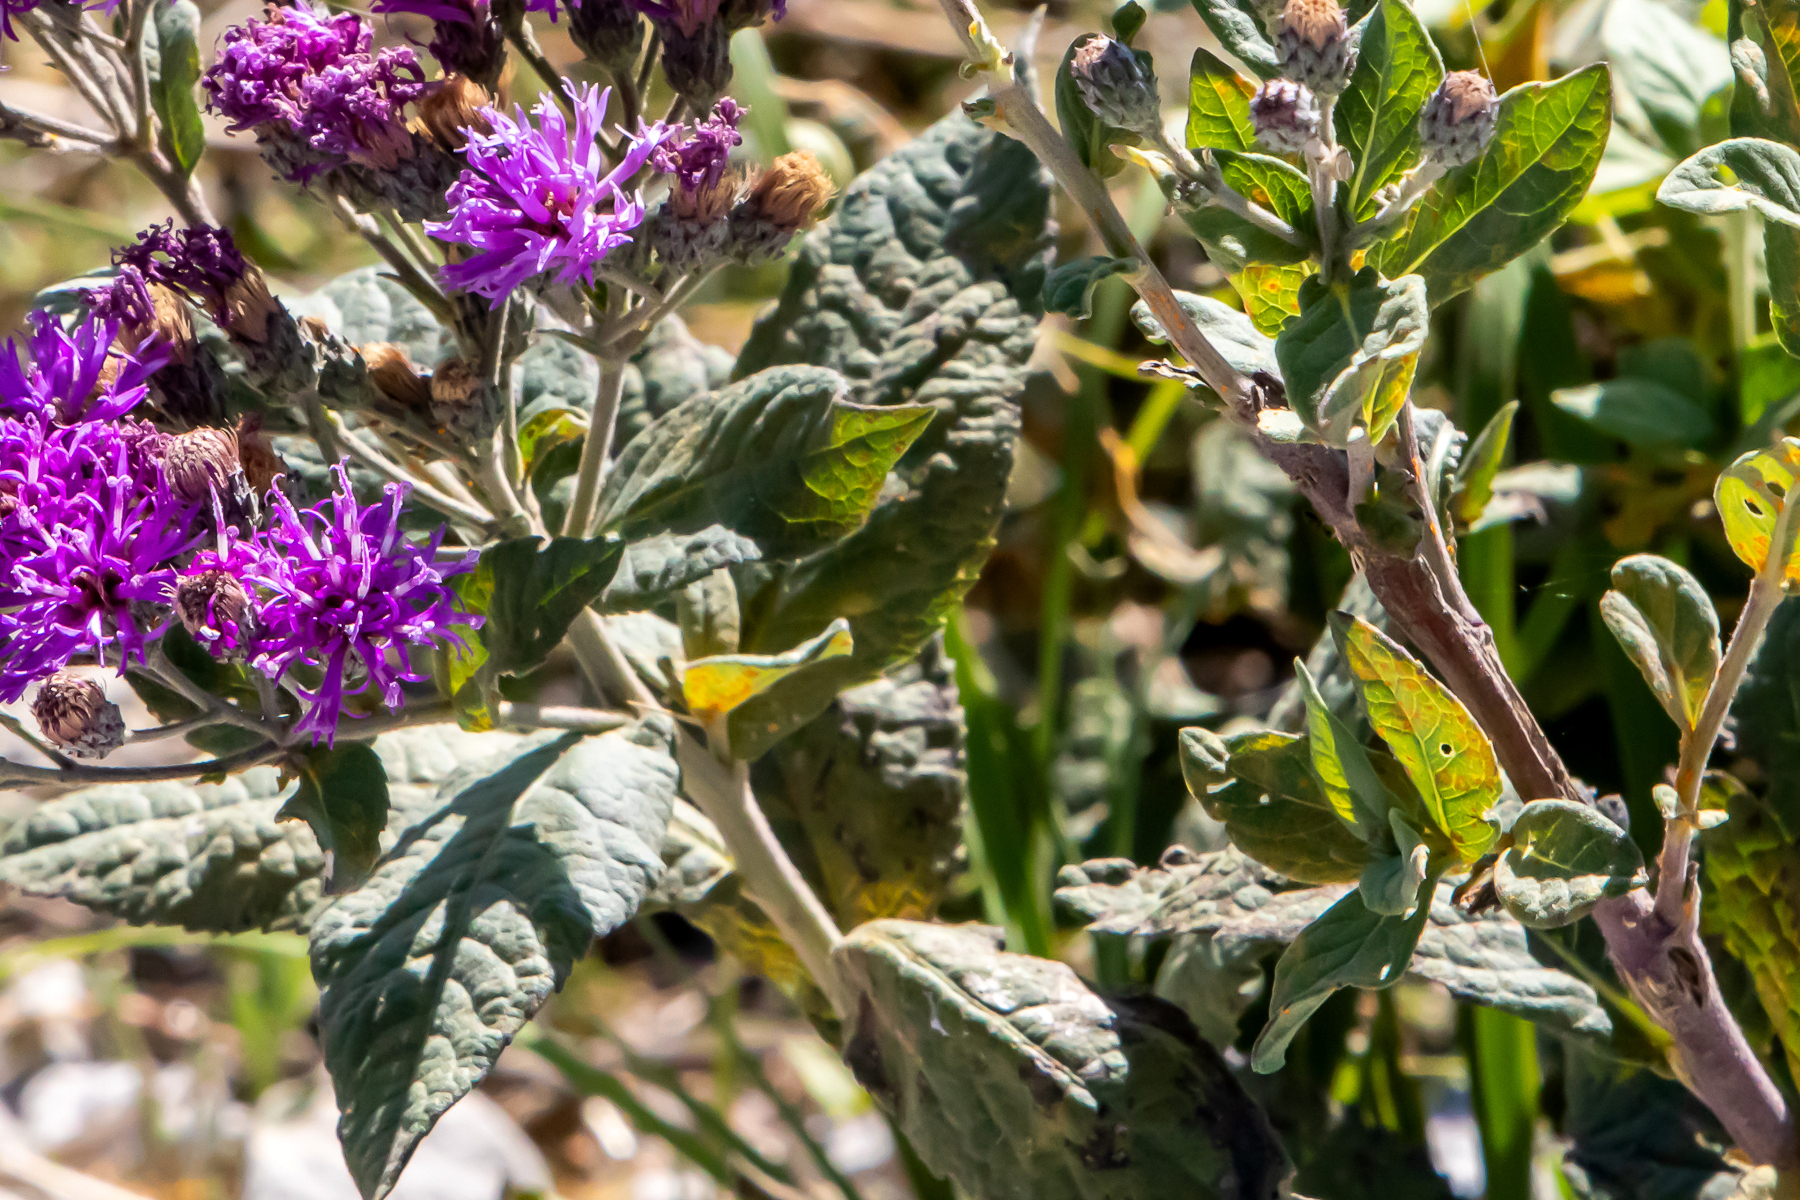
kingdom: Plantae
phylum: Tracheophyta
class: Magnoliopsida
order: Asterales
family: Asteraceae
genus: Vernonia
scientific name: Vernonia baldwinii
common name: Western ironweed
